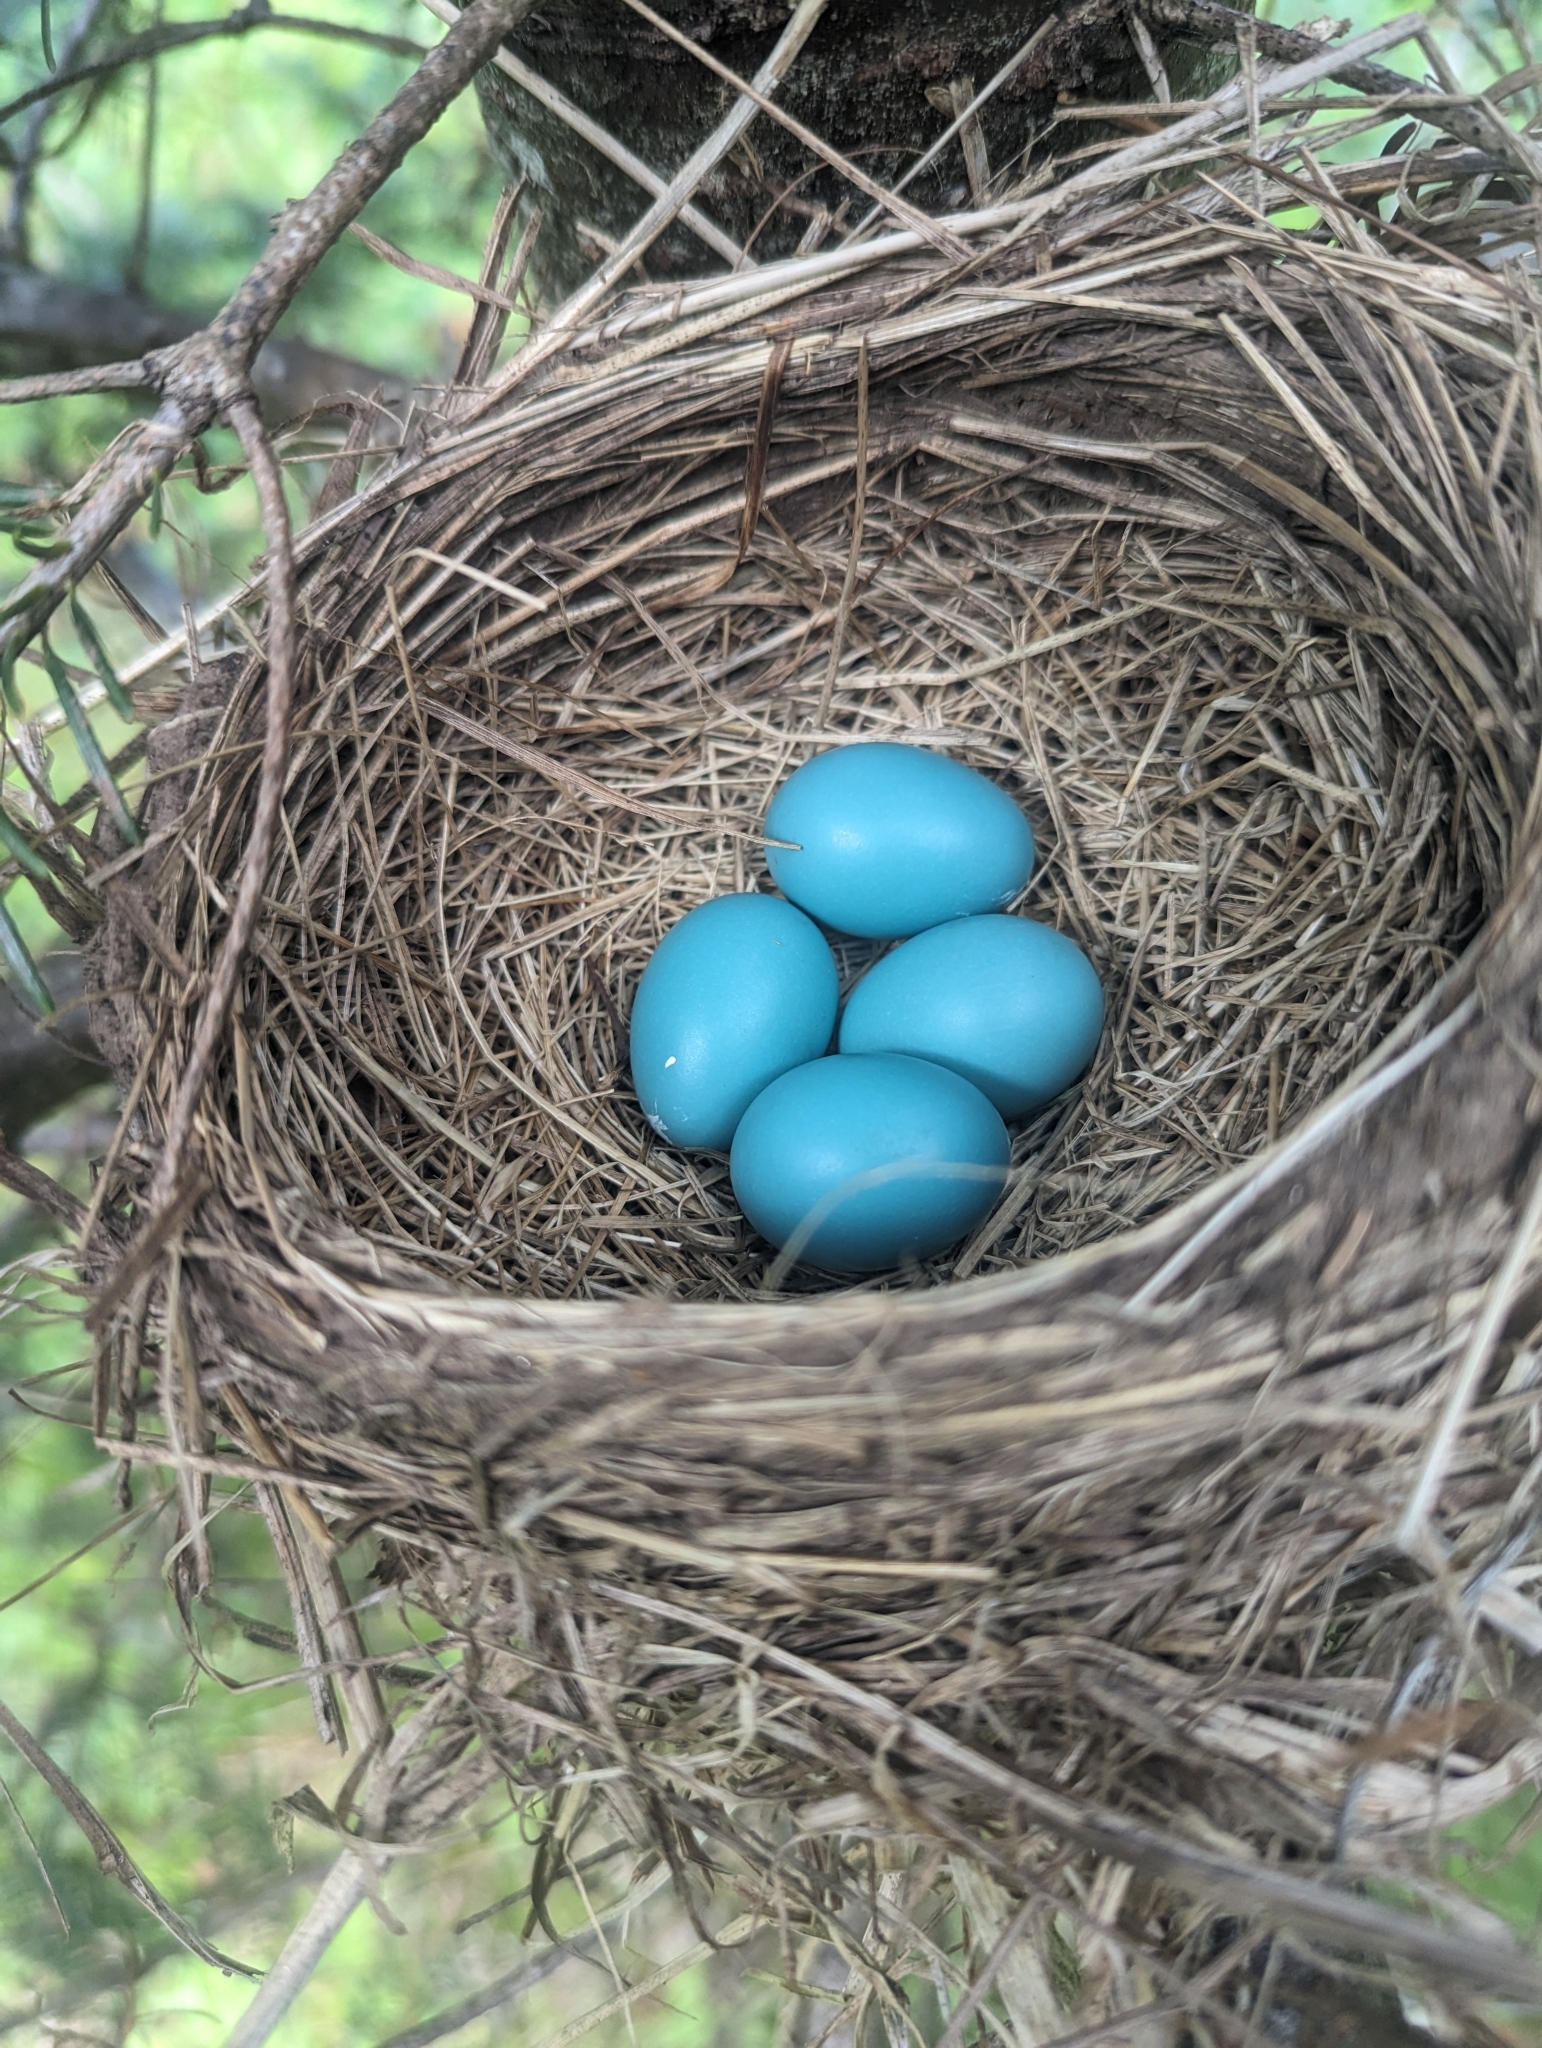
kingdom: Animalia
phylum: Chordata
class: Aves
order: Passeriformes
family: Turdidae
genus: Turdus
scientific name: Turdus migratorius
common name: American robin
